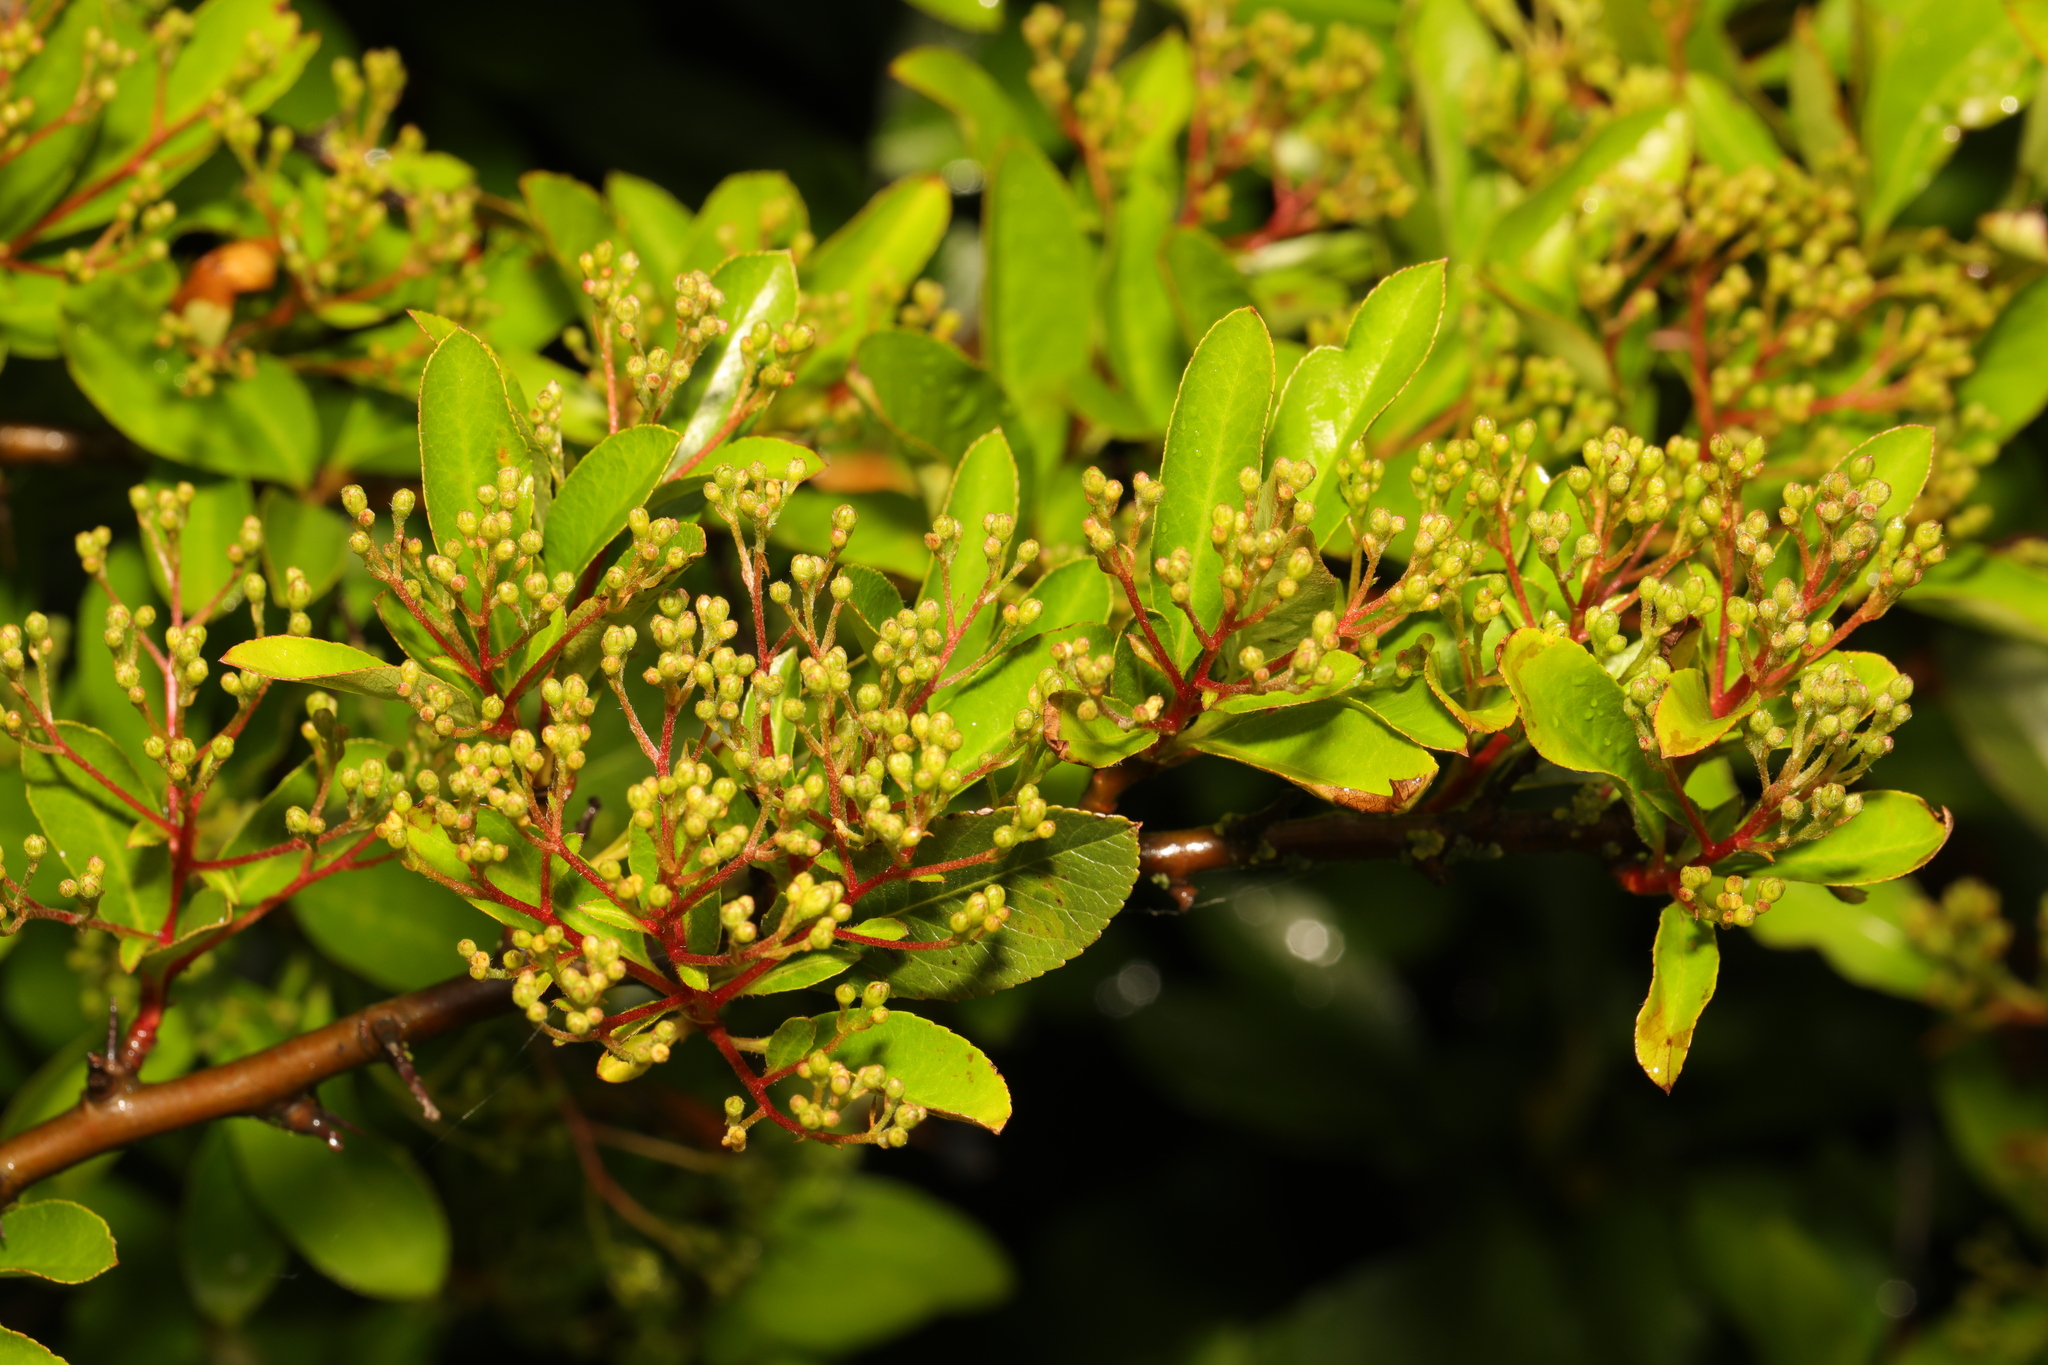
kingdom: Plantae
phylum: Tracheophyta
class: Magnoliopsida
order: Rosales
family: Rosaceae
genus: Pyracantha
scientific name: Pyracantha coccinea
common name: Firethorn
